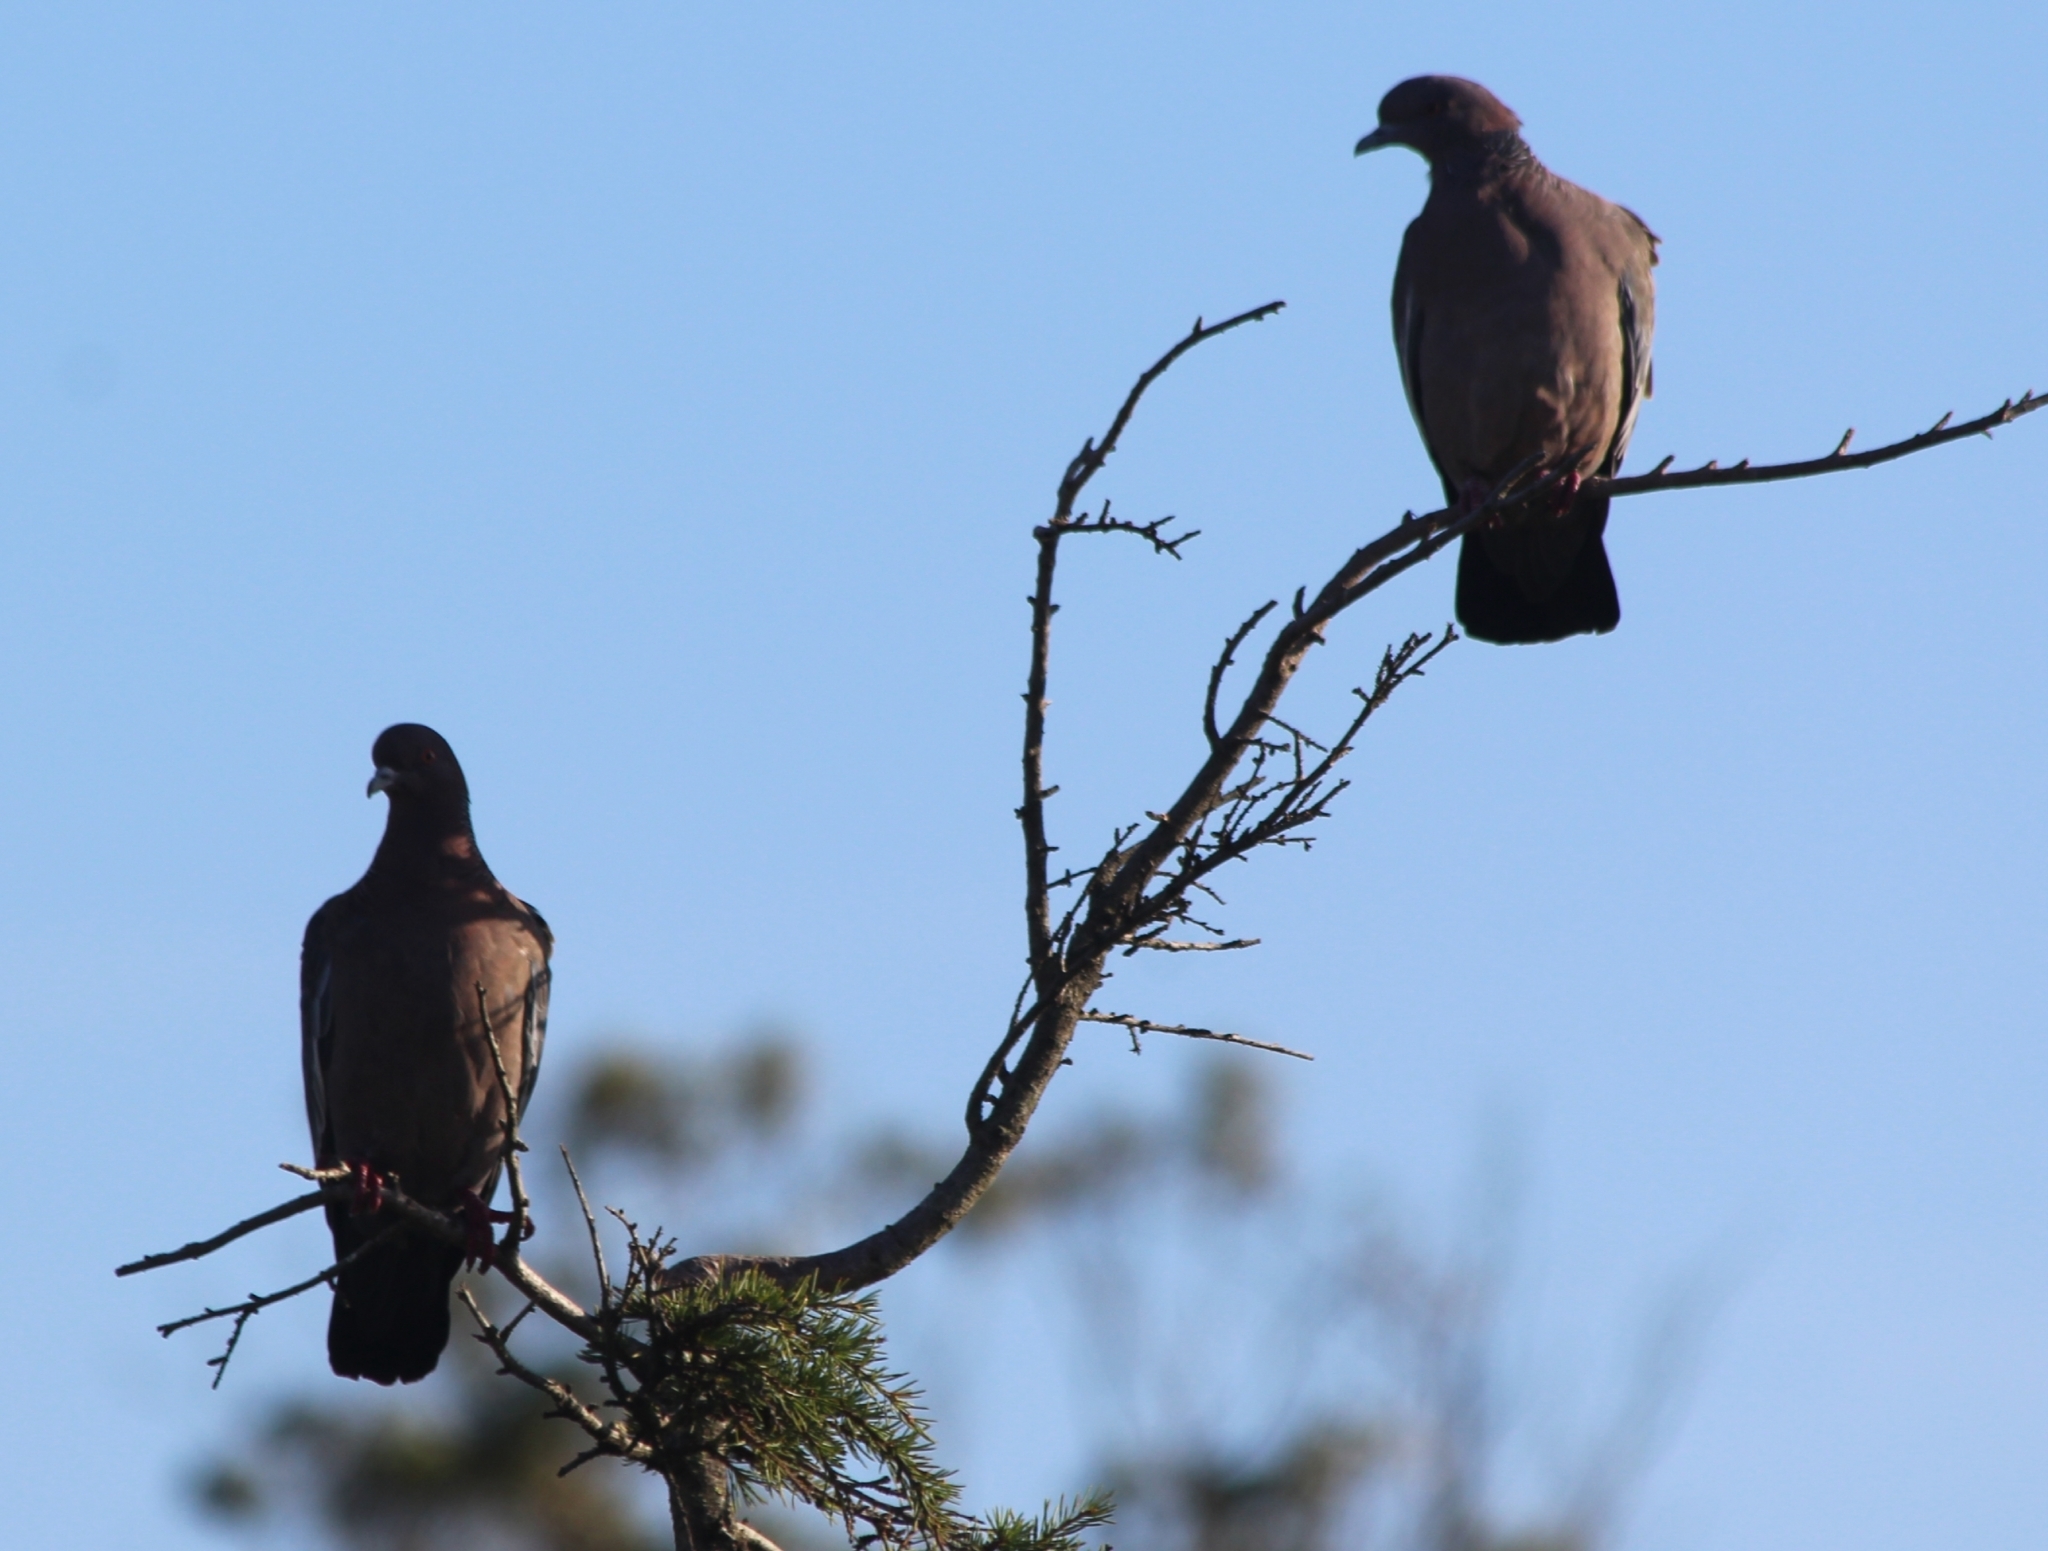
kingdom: Animalia
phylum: Chordata
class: Aves
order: Columbiformes
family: Columbidae
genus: Patagioenas
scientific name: Patagioenas picazuro
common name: Picazuro pigeon
